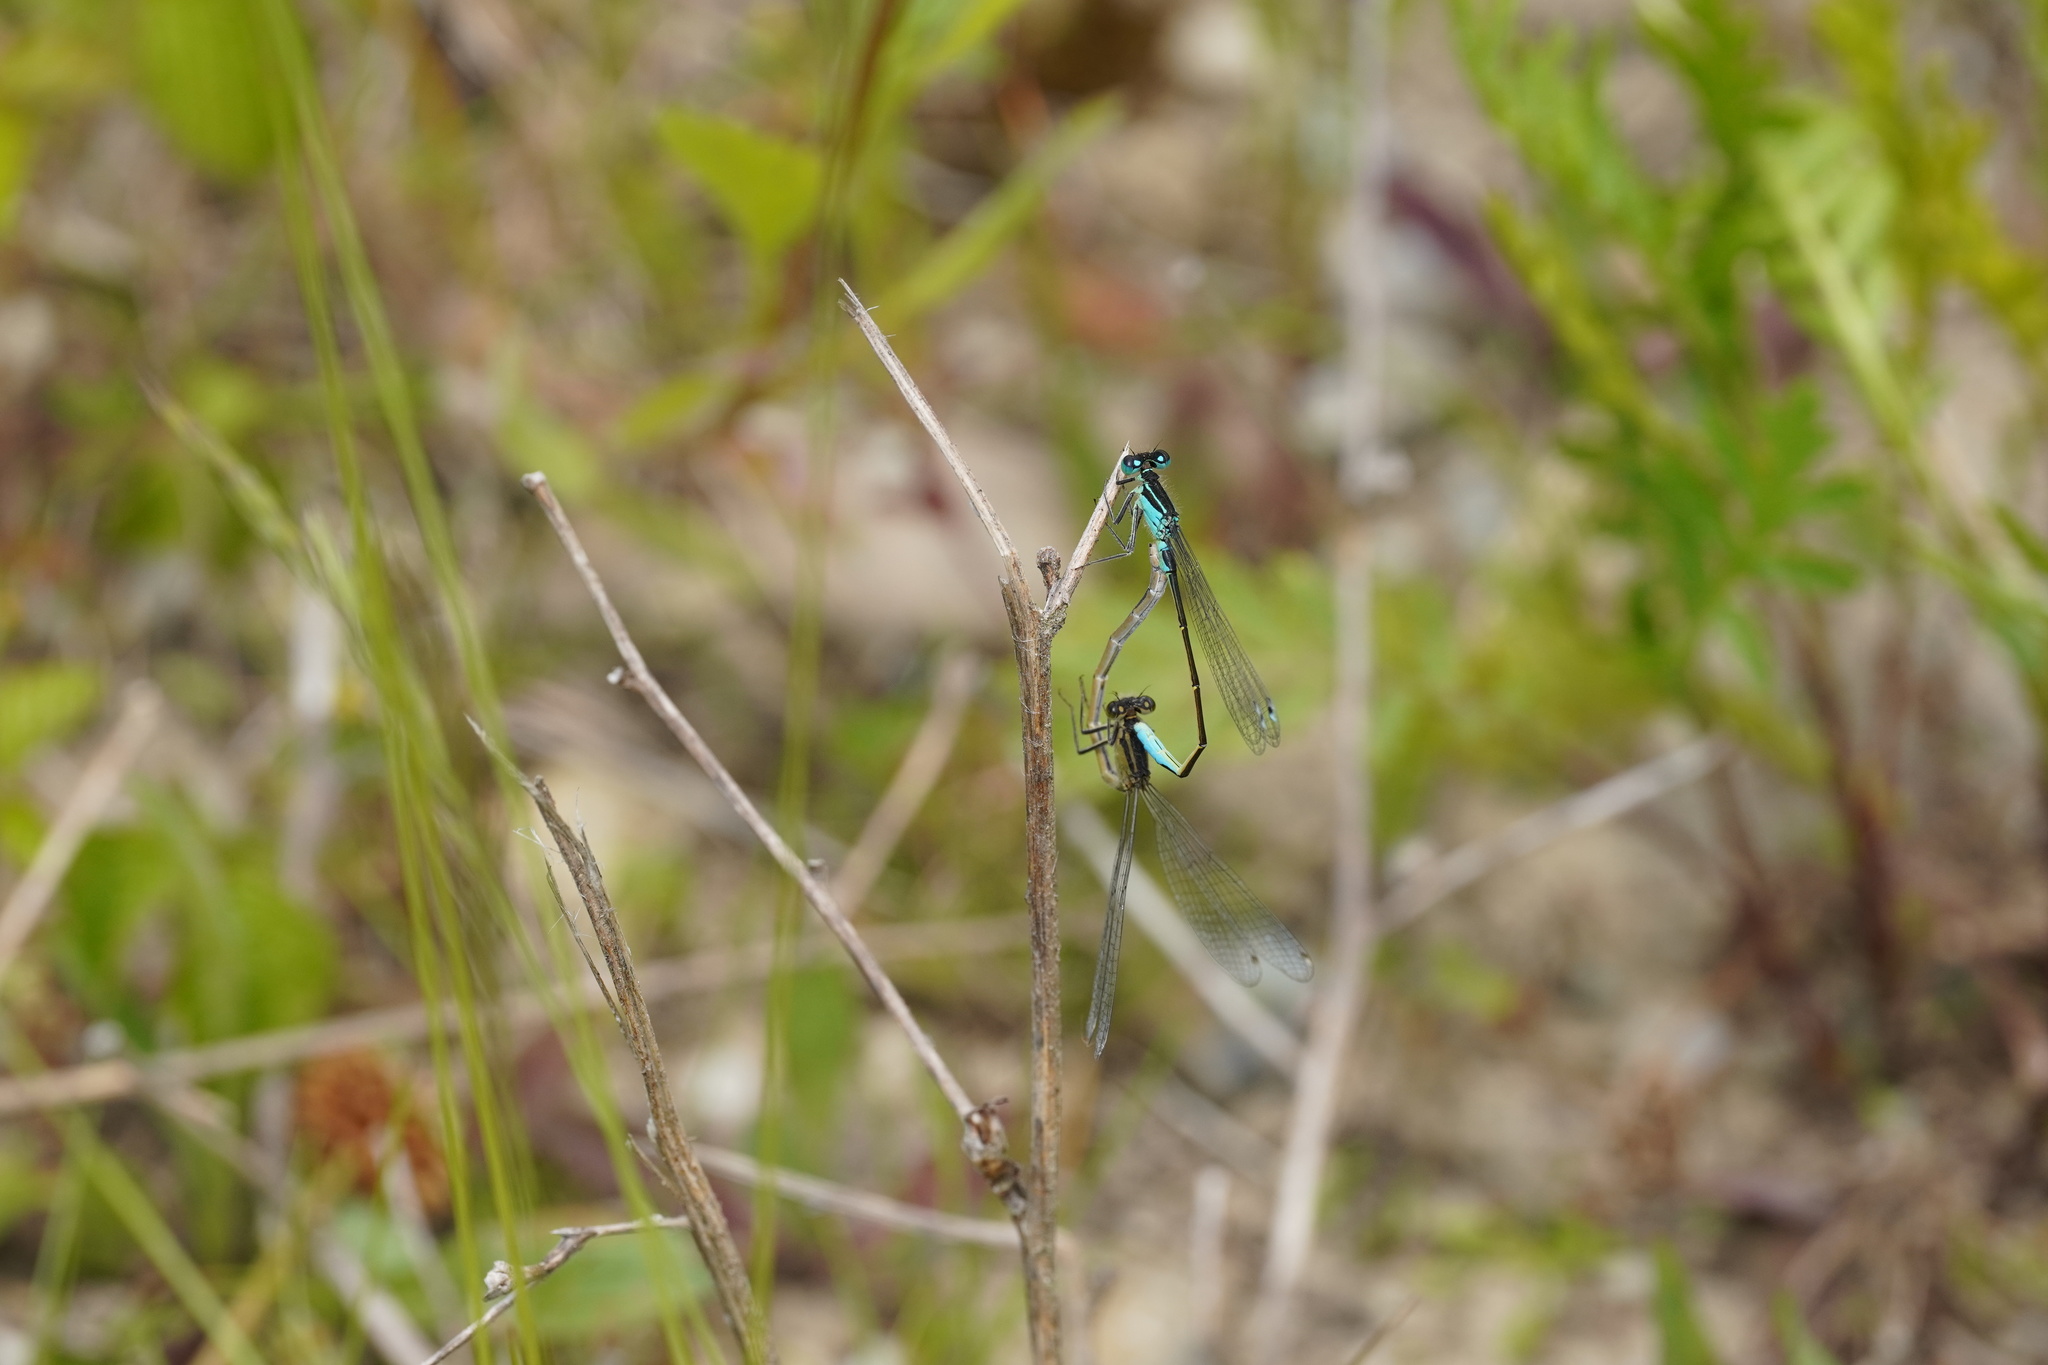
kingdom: Animalia
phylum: Arthropoda
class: Insecta
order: Odonata
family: Coenagrionidae
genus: Ischnura
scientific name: Ischnura elegans
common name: Blue-tailed damselfly
